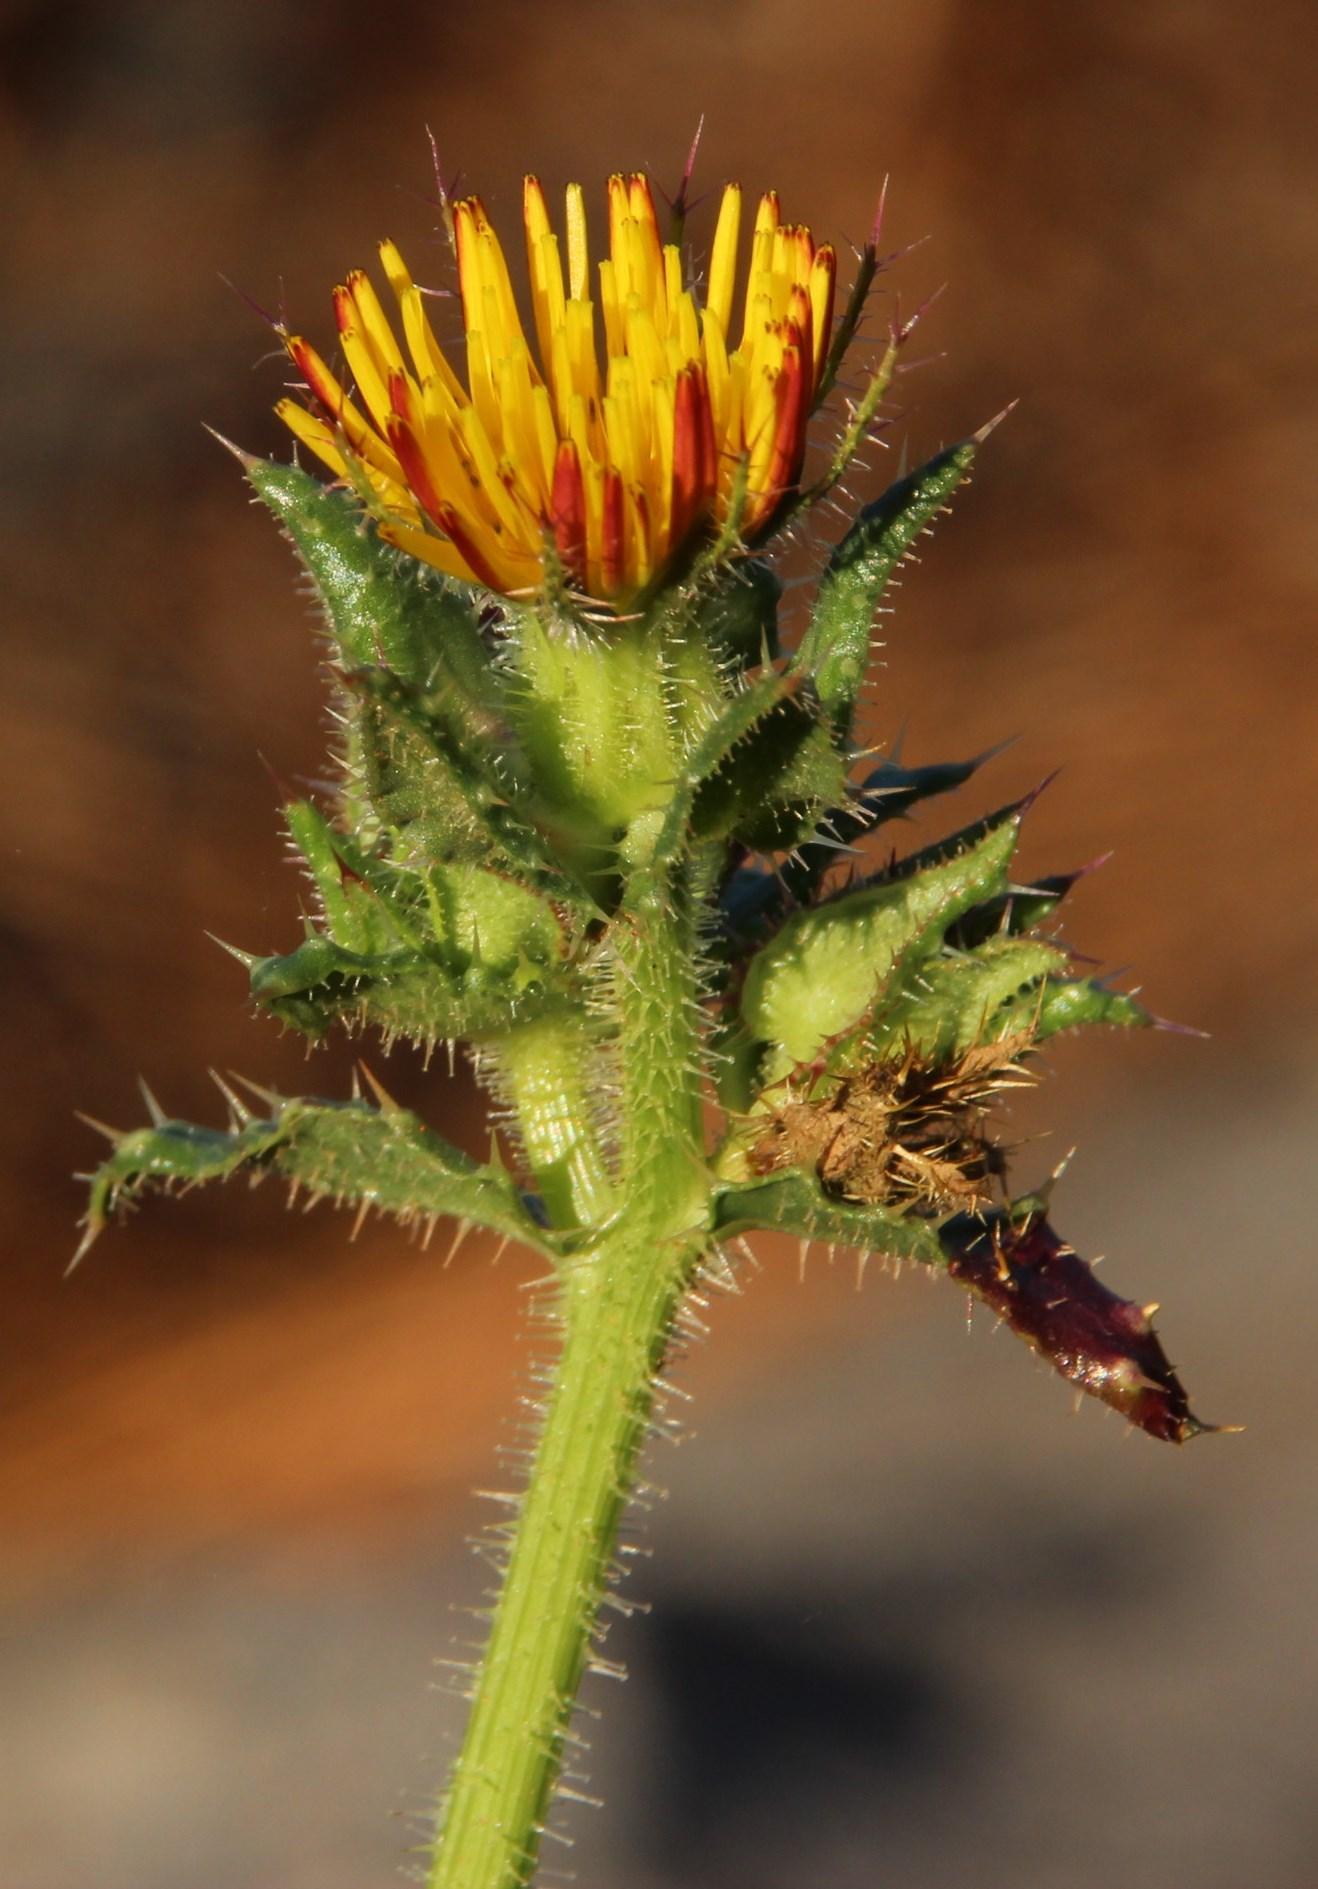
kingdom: Plantae
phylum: Tracheophyta
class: Magnoliopsida
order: Asterales
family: Asteraceae
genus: Helminthotheca
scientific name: Helminthotheca echioides
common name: Ox-tongue
